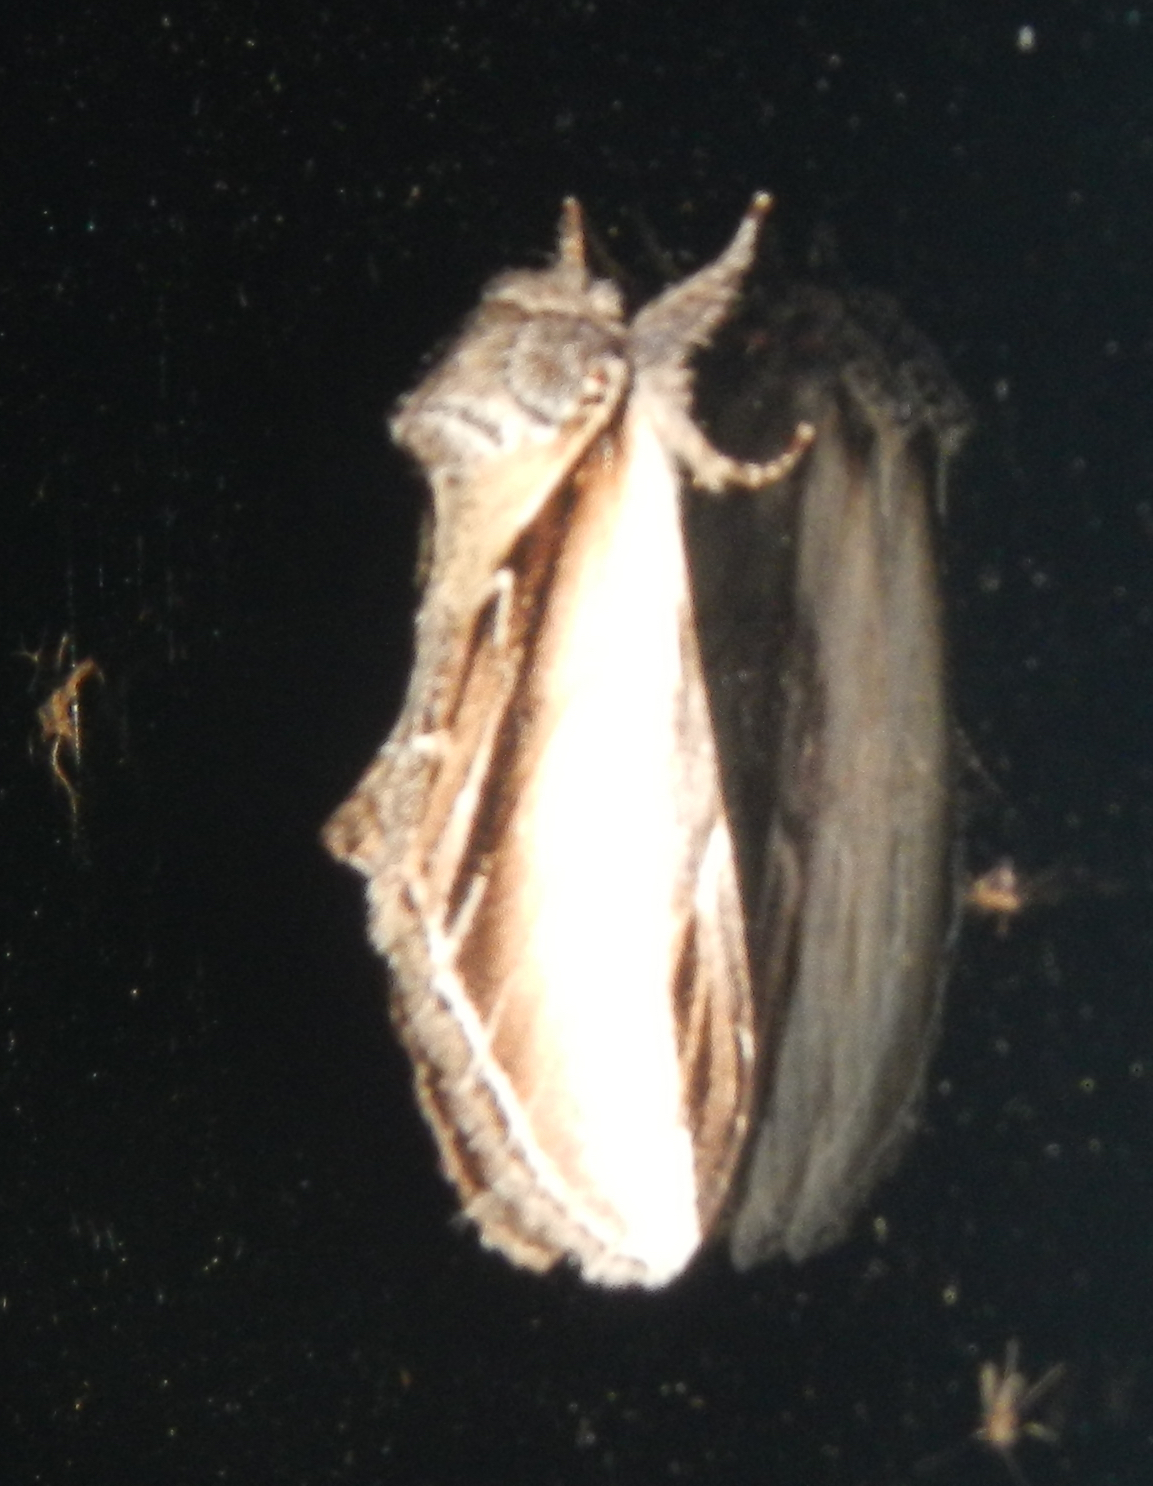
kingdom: Animalia
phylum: Arthropoda
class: Insecta
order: Lepidoptera
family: Notodontidae
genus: Pheosia
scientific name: Pheosia rimosa
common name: Black-rimmed prominent
